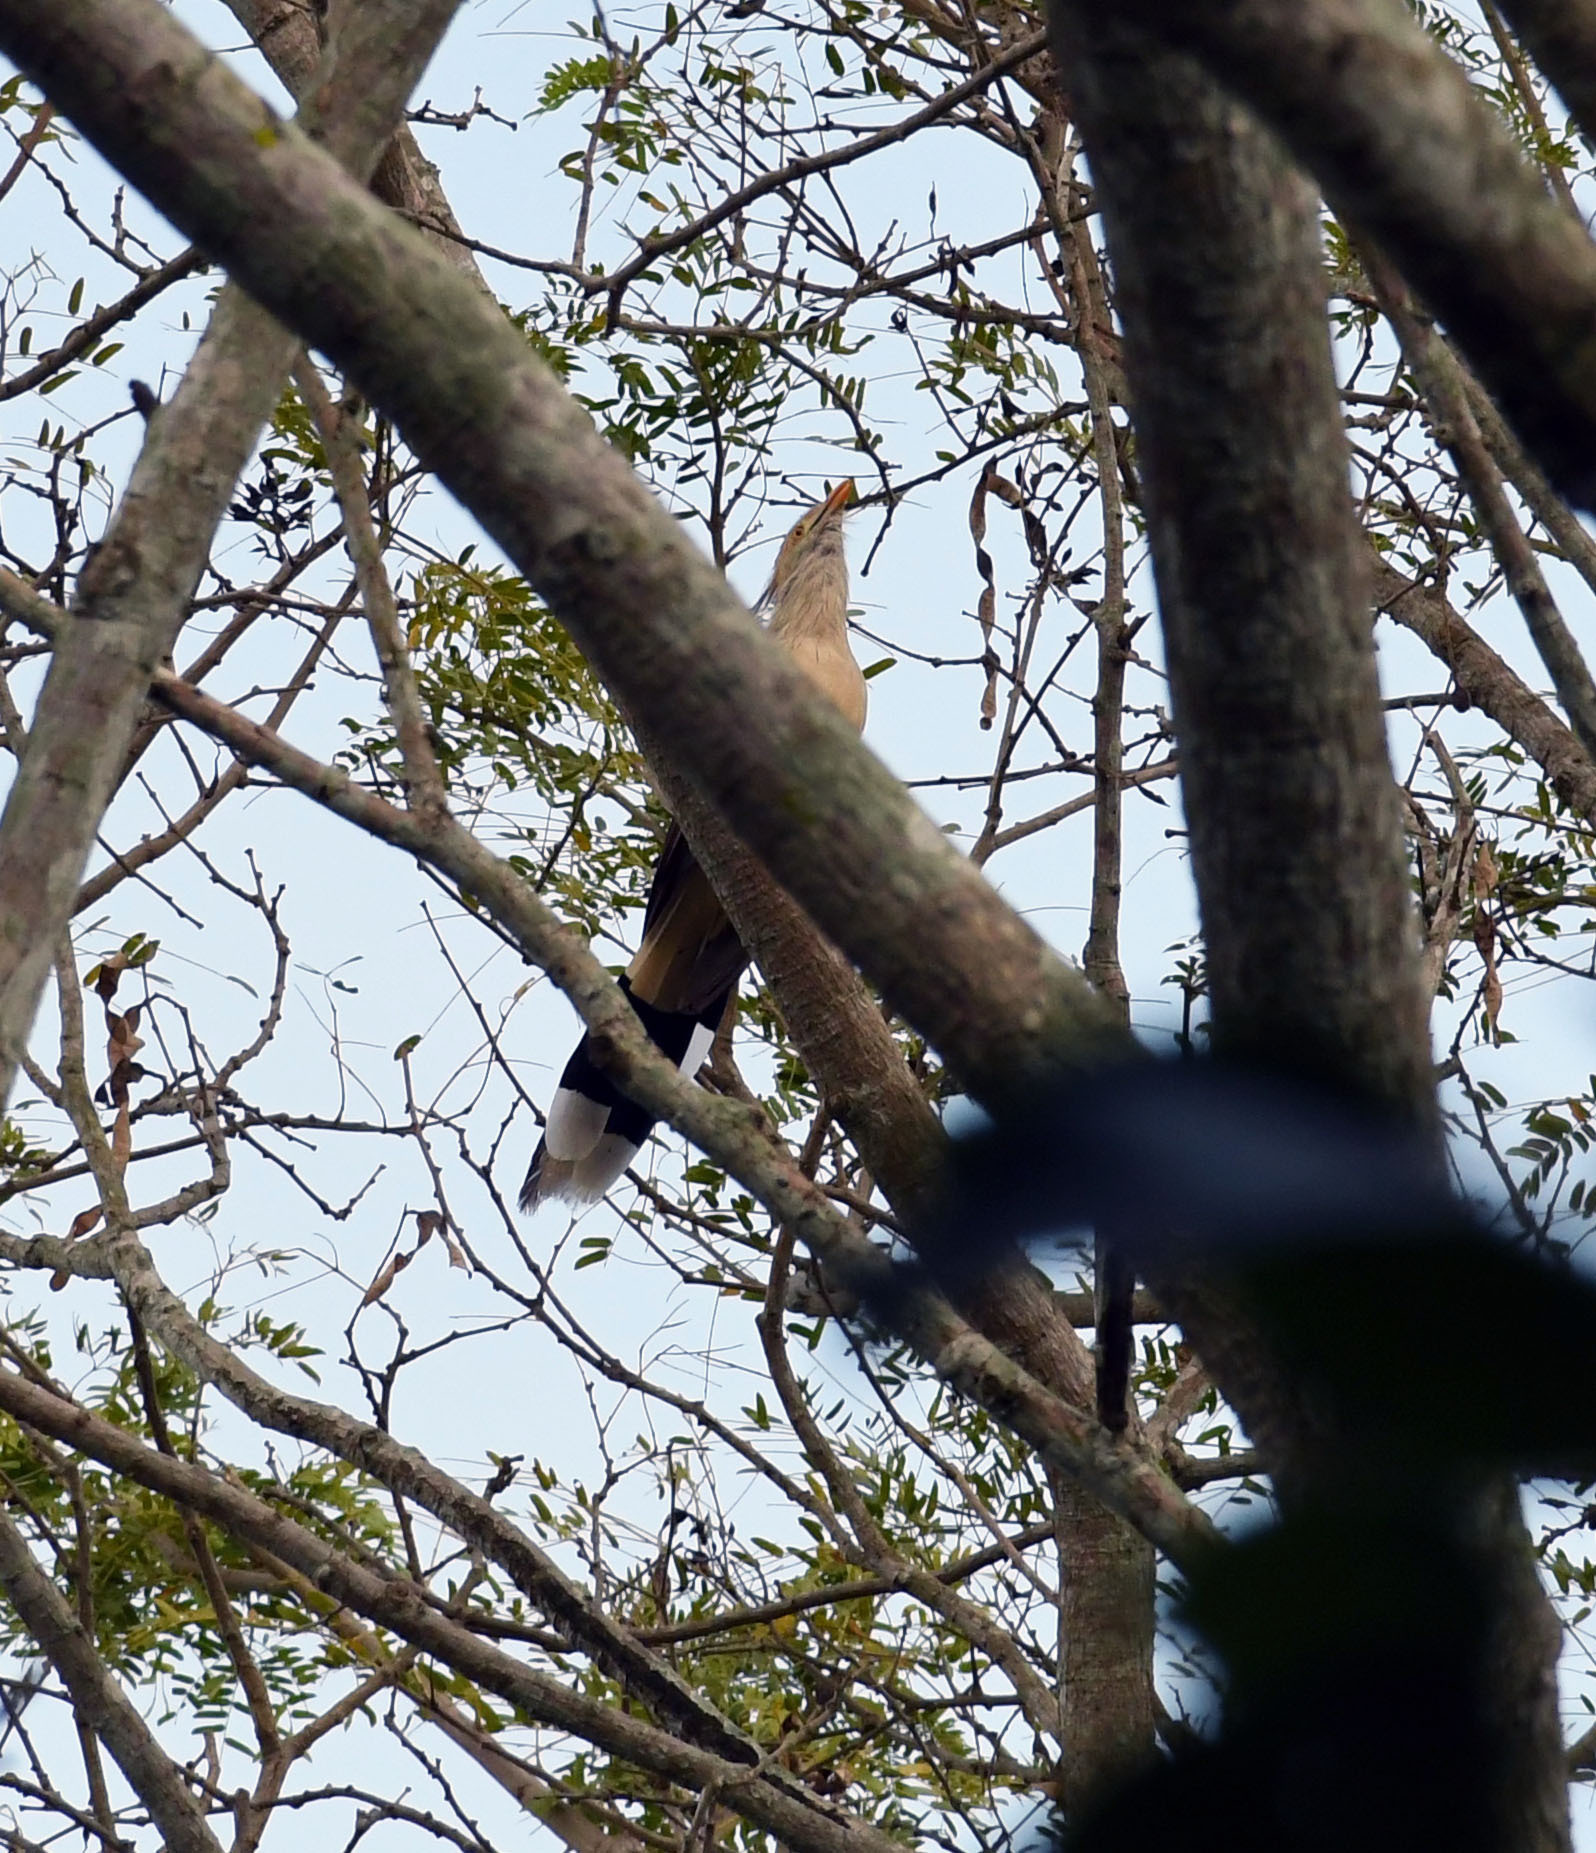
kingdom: Animalia
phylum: Chordata
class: Aves
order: Cuculiformes
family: Cuculidae
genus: Guira
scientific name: Guira guira
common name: Guira cuckoo
